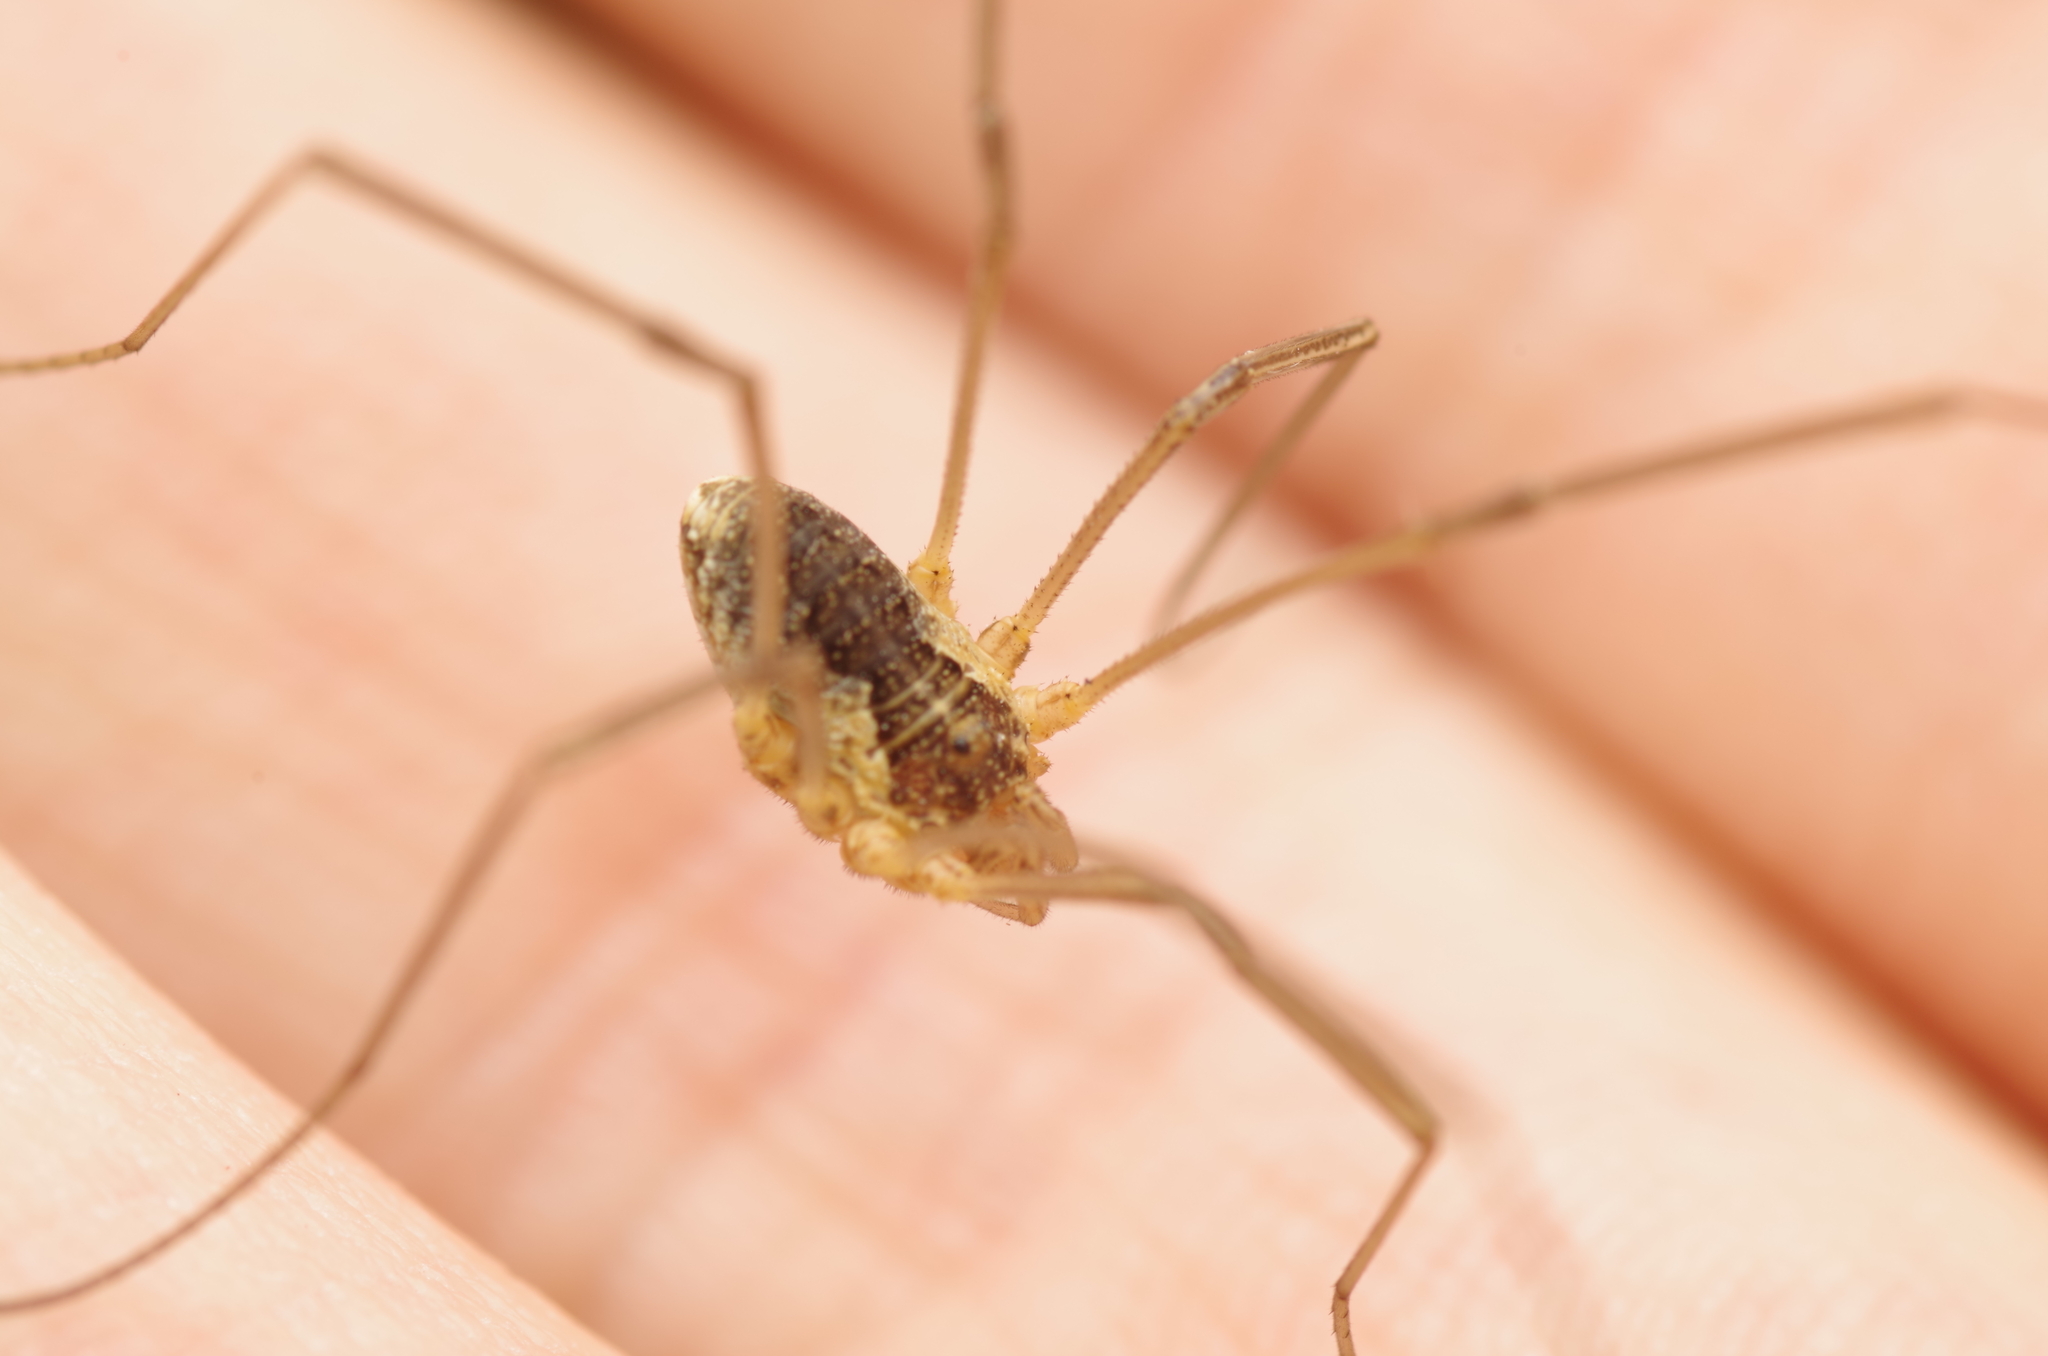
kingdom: Animalia
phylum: Arthropoda
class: Arachnida
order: Opiliones
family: Phalangiidae
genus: Mitopus
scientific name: Mitopus morio
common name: Saddleback harvestman
